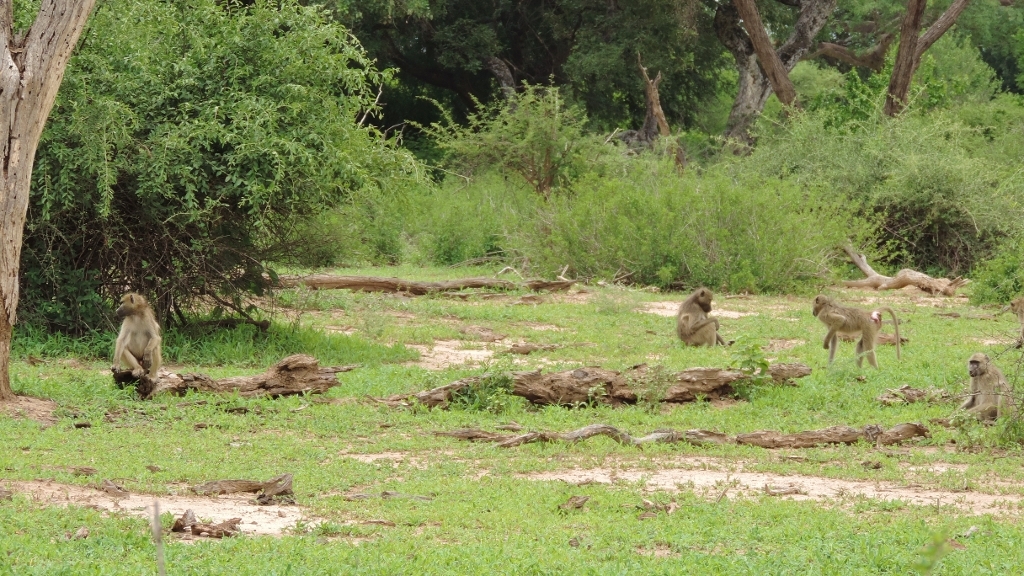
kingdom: Animalia
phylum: Chordata
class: Mammalia
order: Primates
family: Cercopithecidae
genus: Papio
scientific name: Papio ursinus
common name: Chacma baboon
